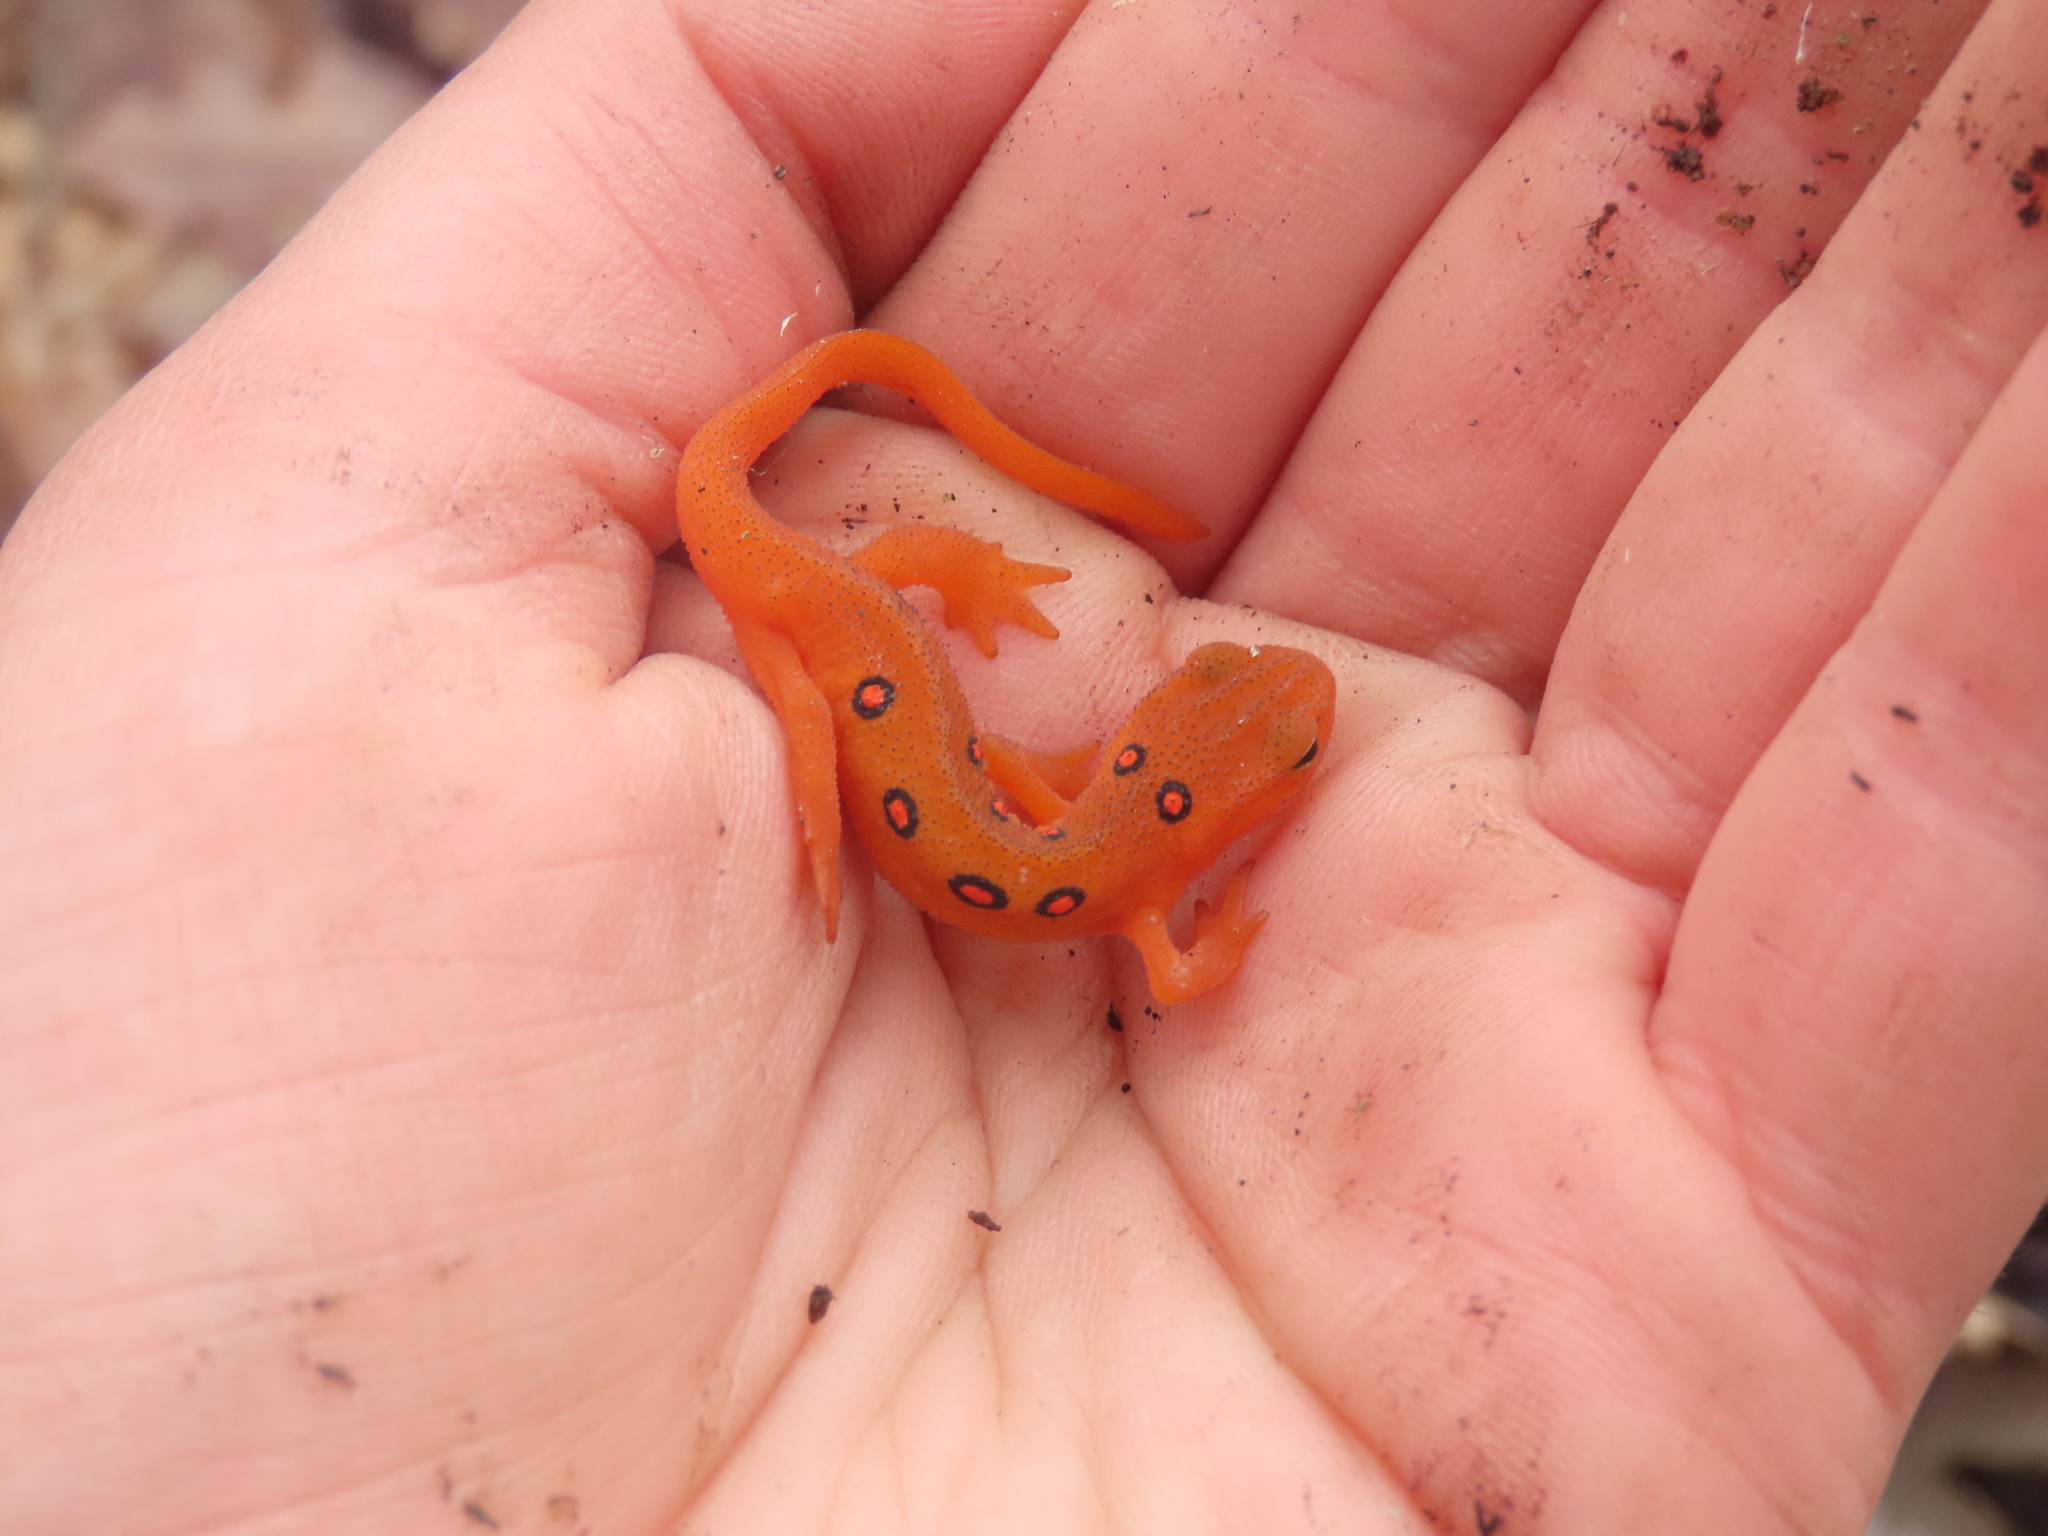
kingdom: Animalia
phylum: Chordata
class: Amphibia
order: Caudata
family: Salamandridae
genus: Notophthalmus
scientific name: Notophthalmus viridescens
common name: Eastern newt
